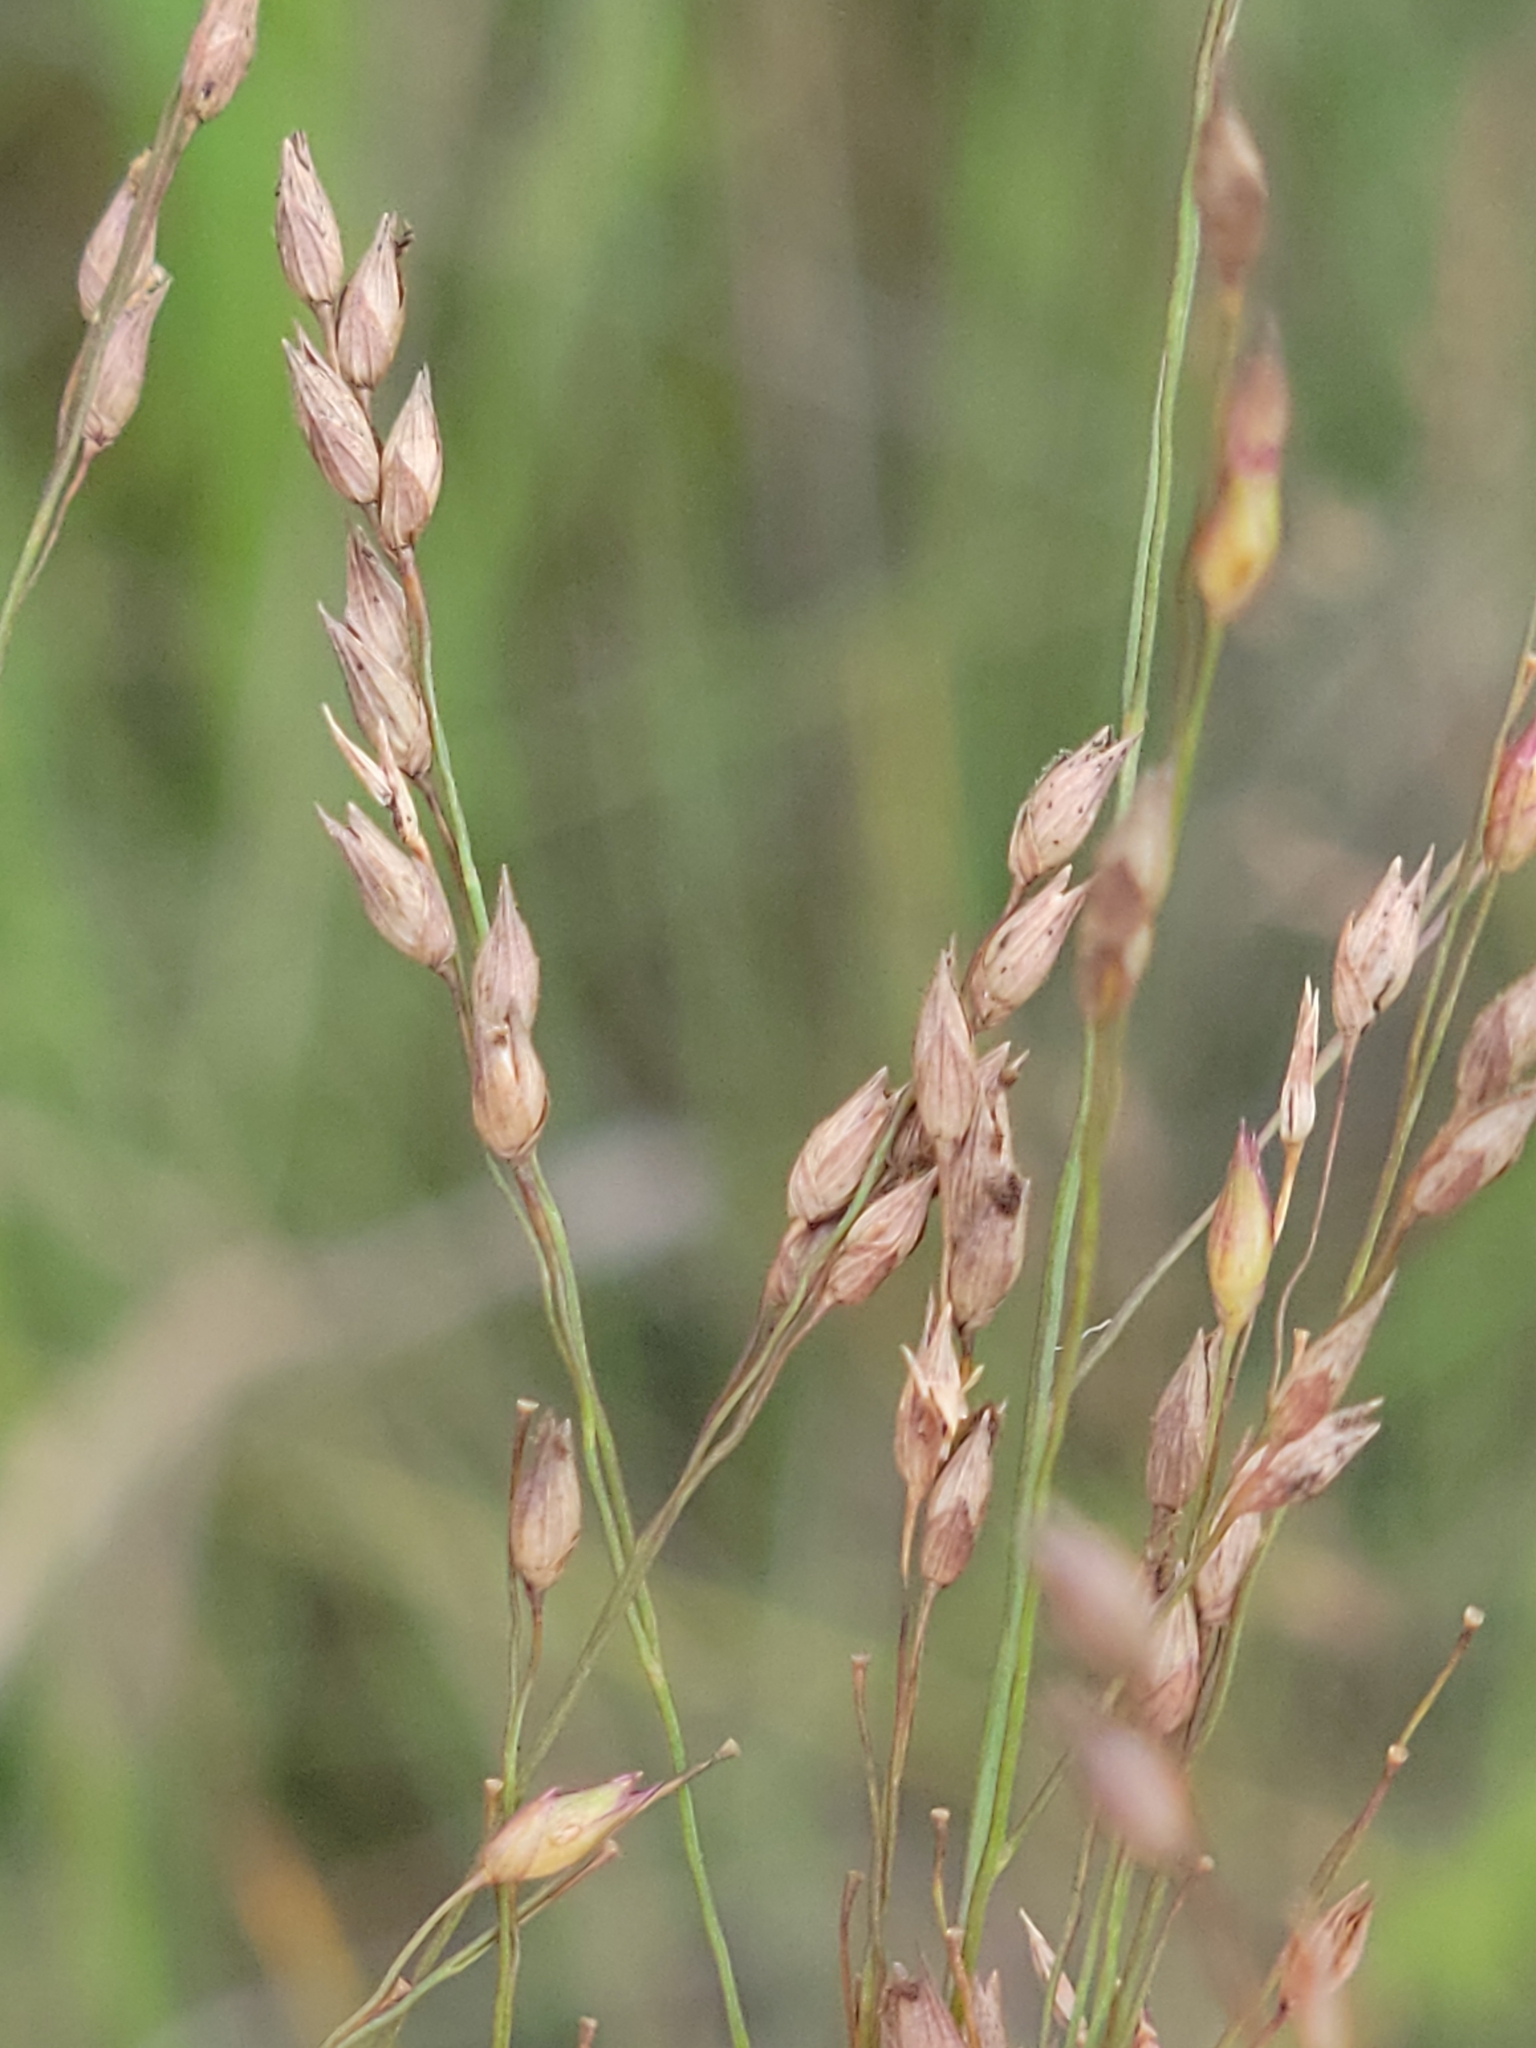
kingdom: Plantae
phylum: Tracheophyta
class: Liliopsida
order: Poales
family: Poaceae
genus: Panicum
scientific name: Panicum virgatum
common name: Switchgrass
